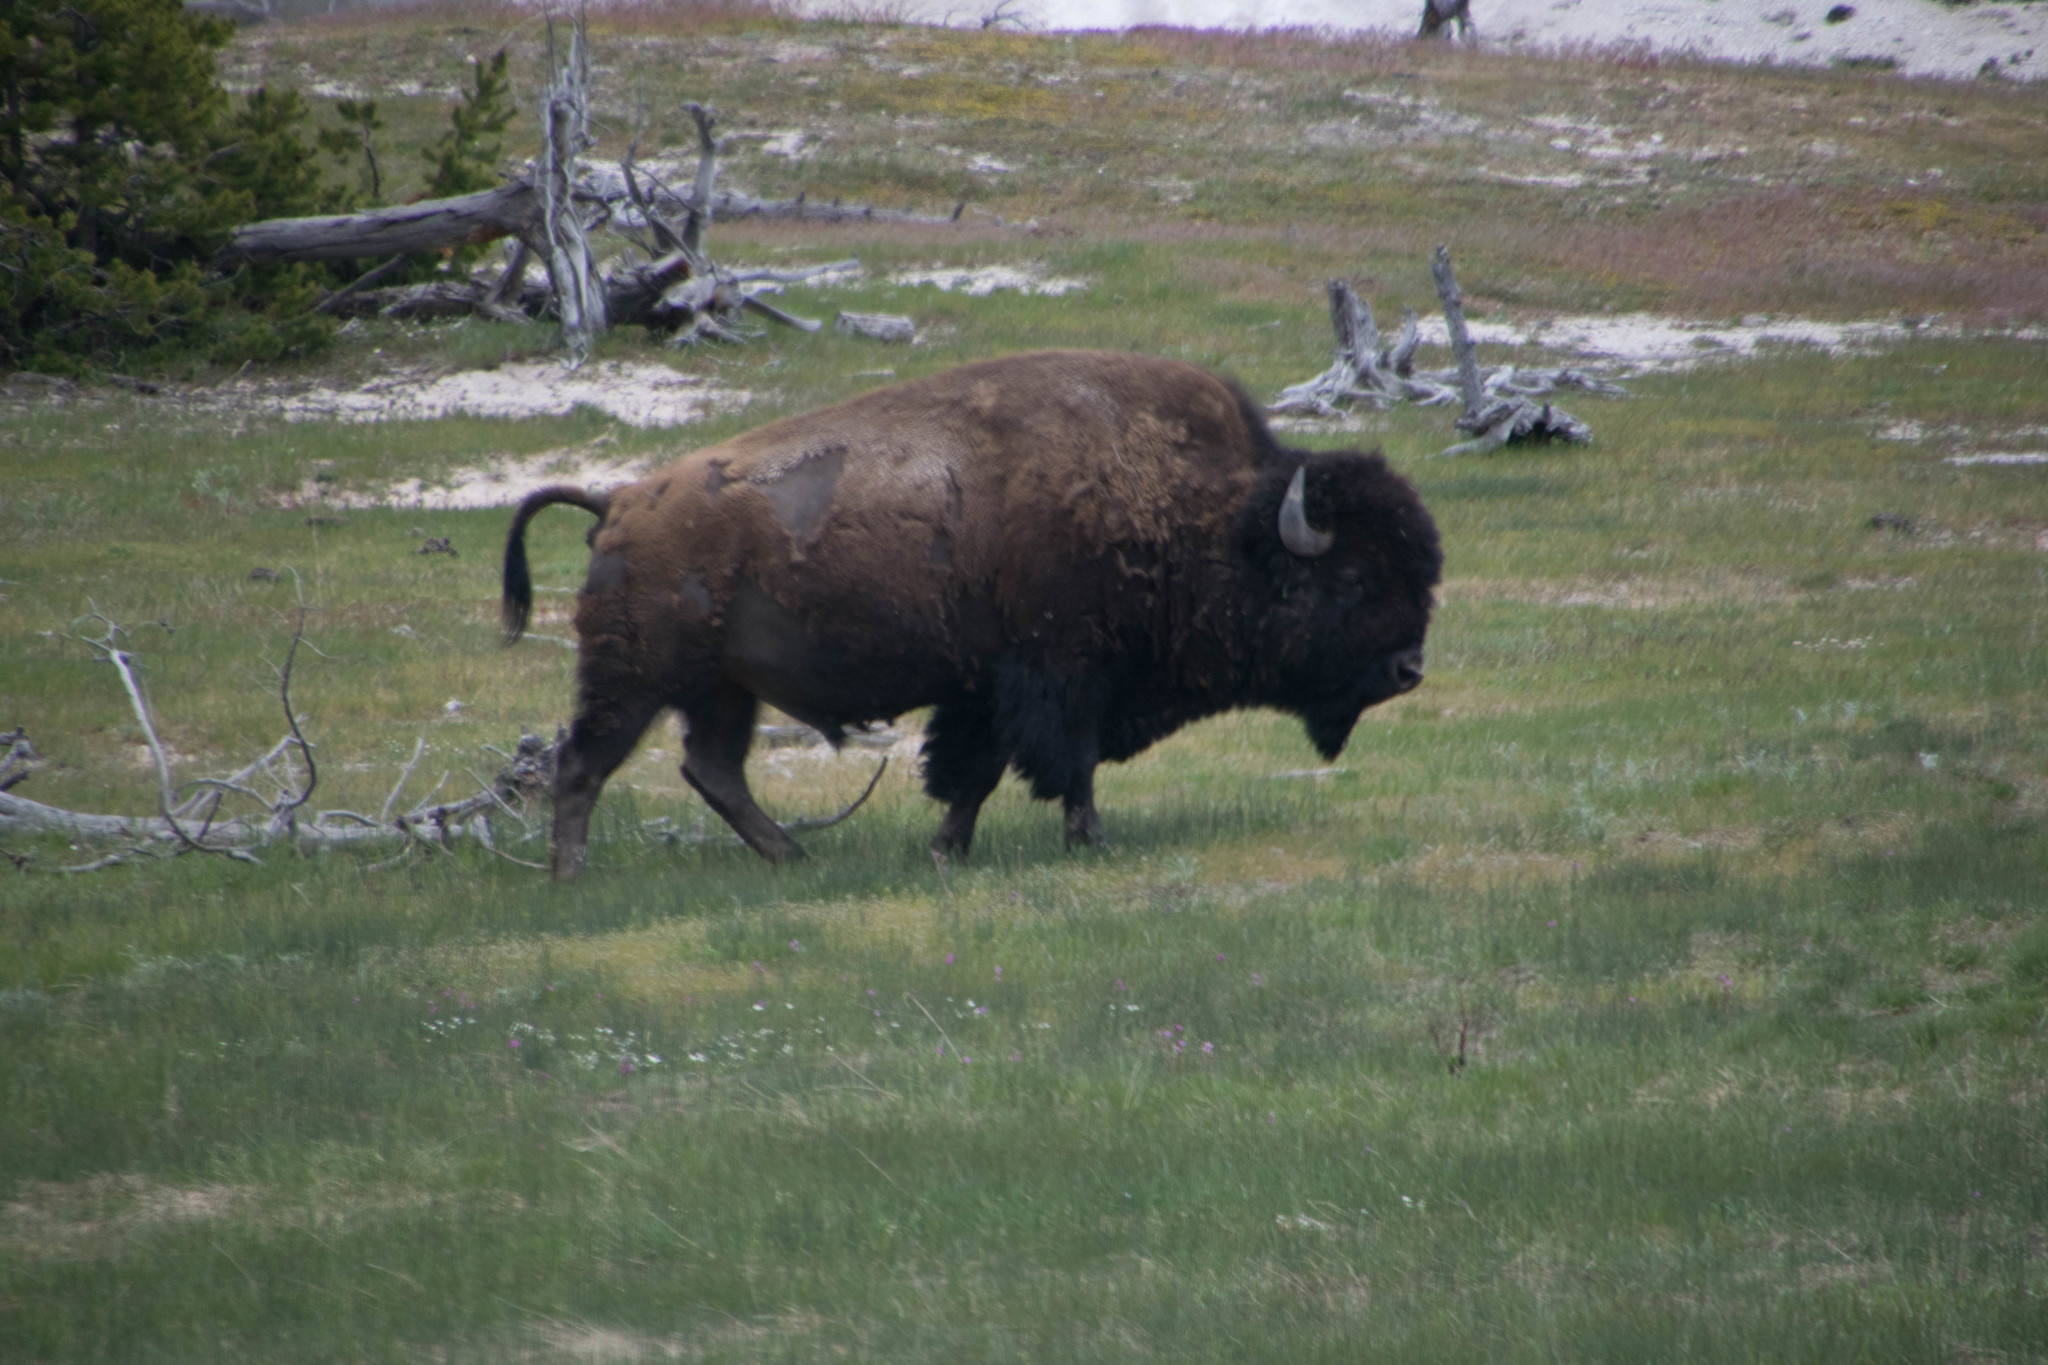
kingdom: Animalia
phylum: Chordata
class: Mammalia
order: Artiodactyla
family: Bovidae
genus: Bison
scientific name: Bison bison
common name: American bison
